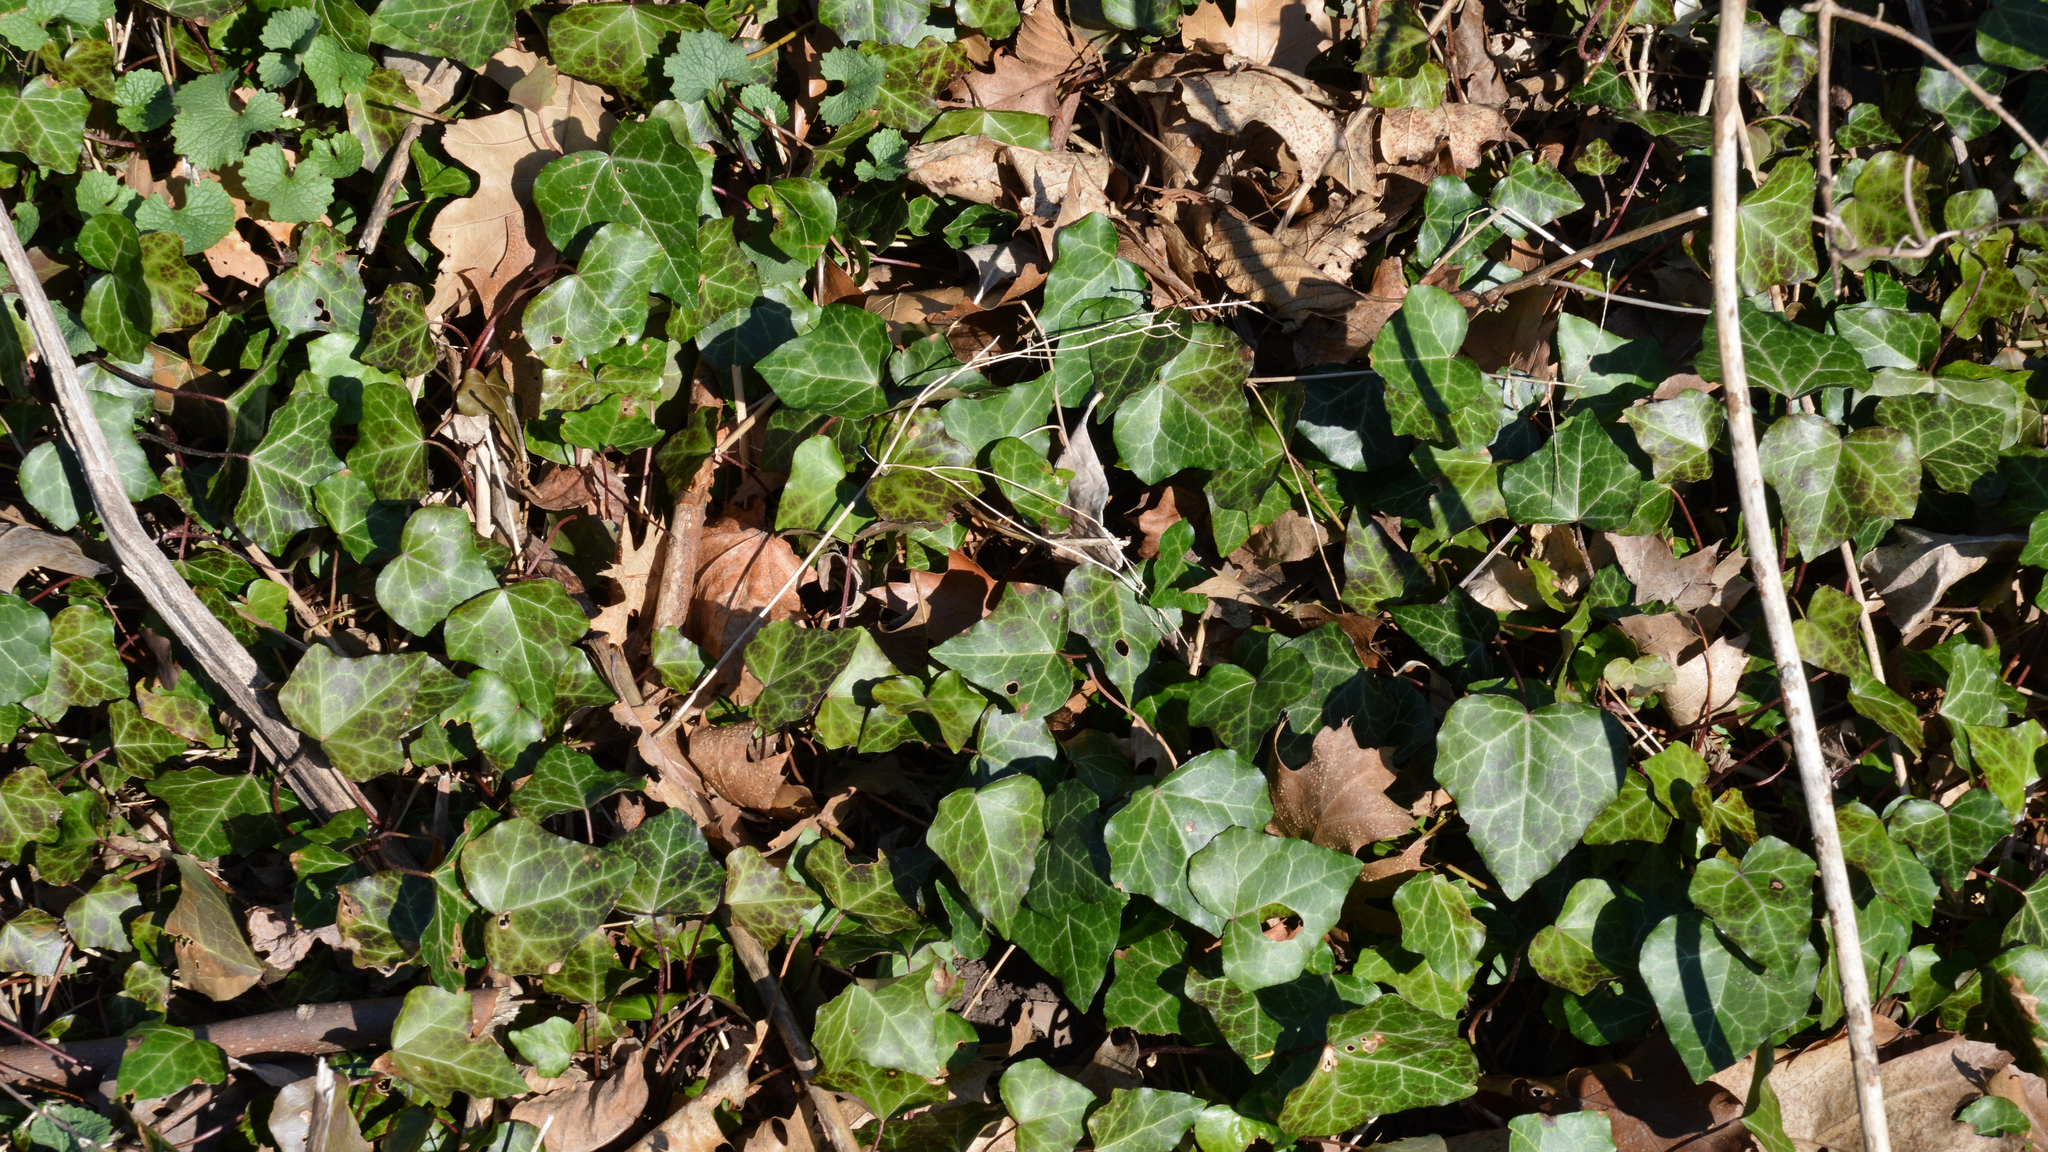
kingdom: Plantae
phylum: Tracheophyta
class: Magnoliopsida
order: Apiales
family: Araliaceae
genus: Hedera
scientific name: Hedera helix
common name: Ivy
